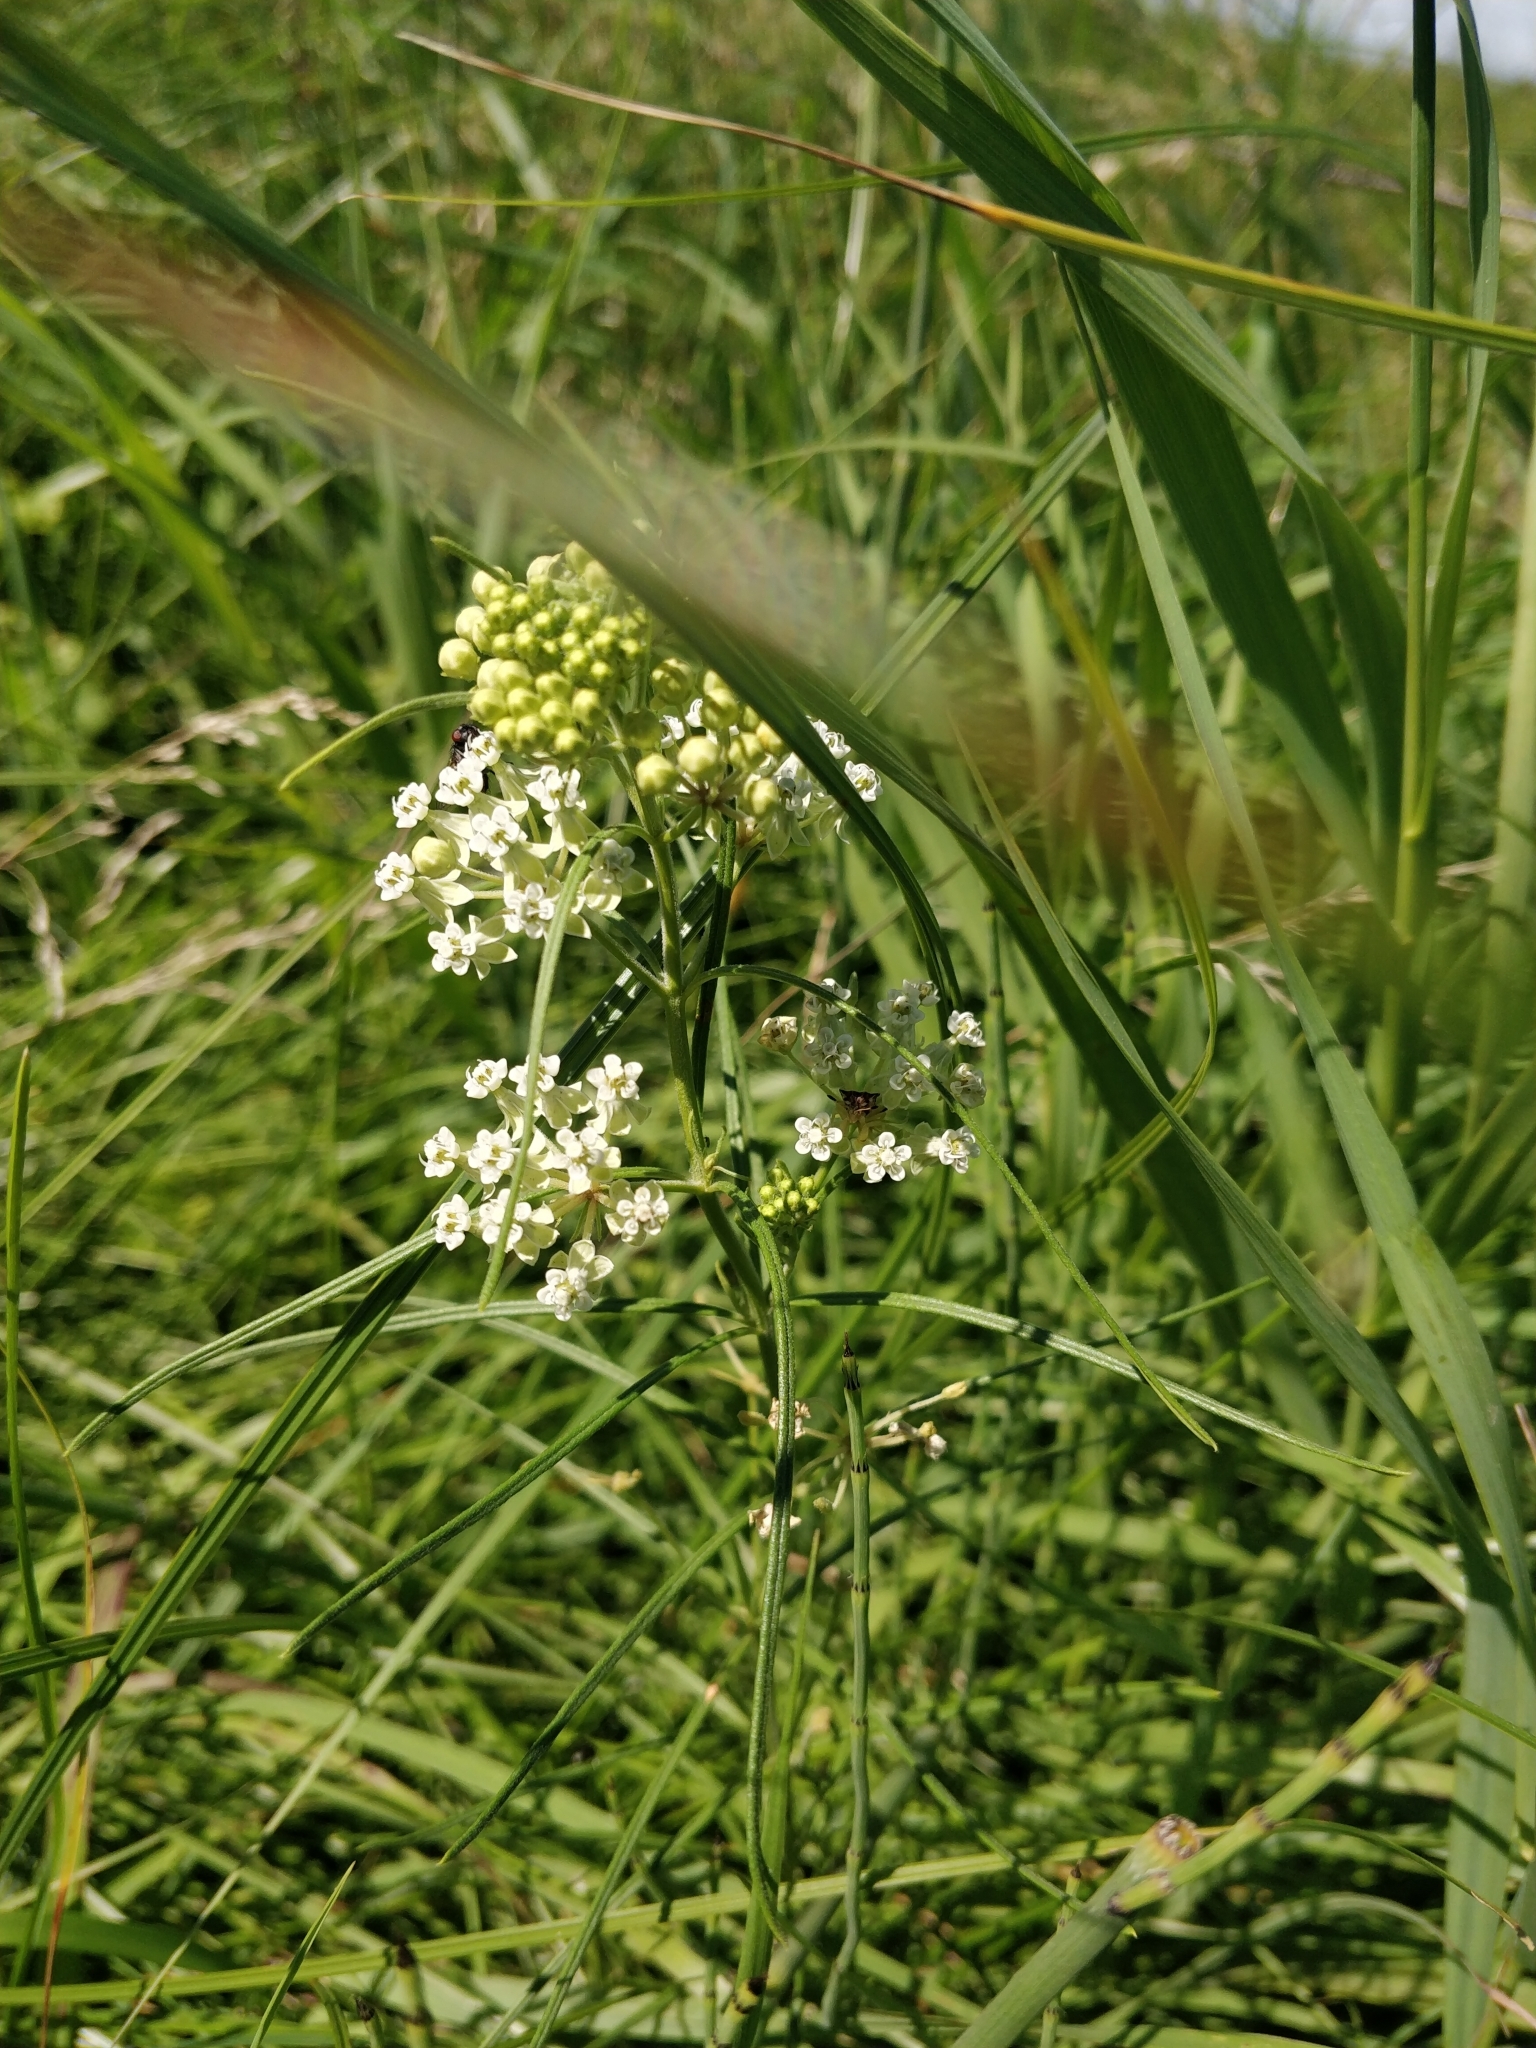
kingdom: Plantae
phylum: Tracheophyta
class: Magnoliopsida
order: Gentianales
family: Apocynaceae
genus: Asclepias
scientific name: Asclepias verticillata
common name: Eastern whorled milkweed
